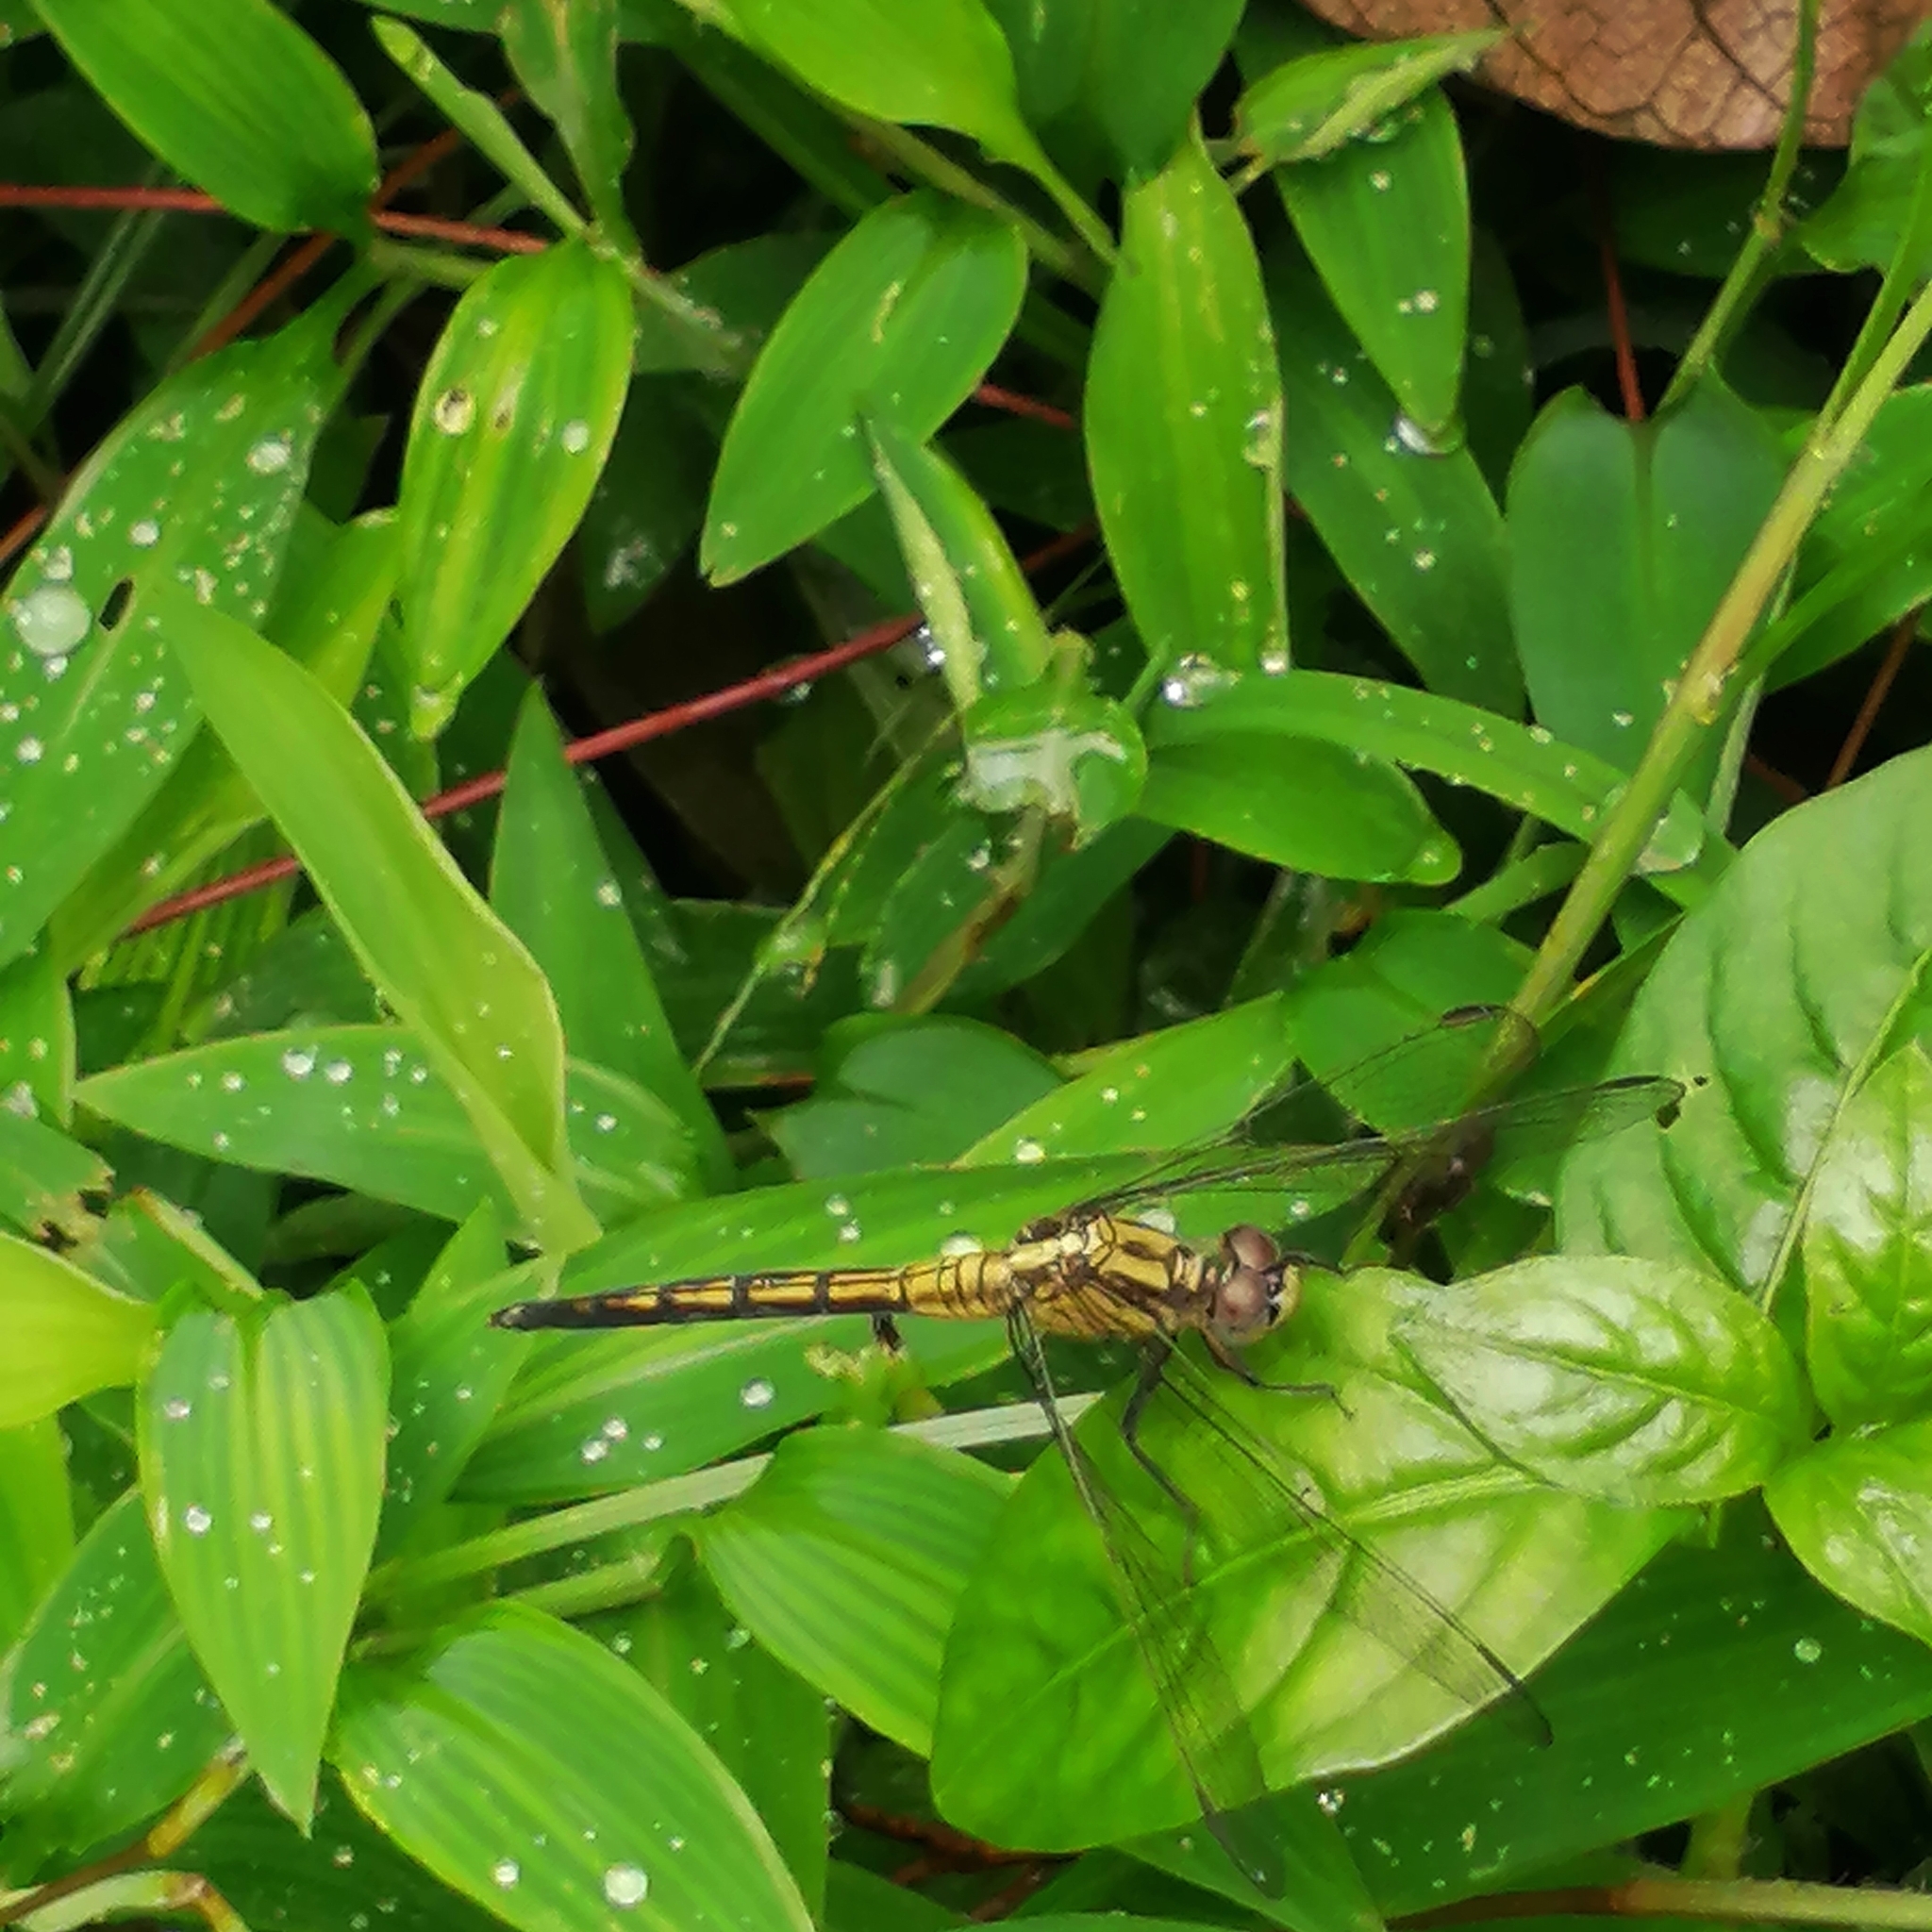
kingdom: Animalia
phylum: Arthropoda
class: Insecta
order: Odonata
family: Libellulidae
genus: Orthetrum
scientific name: Orthetrum luzonicum
